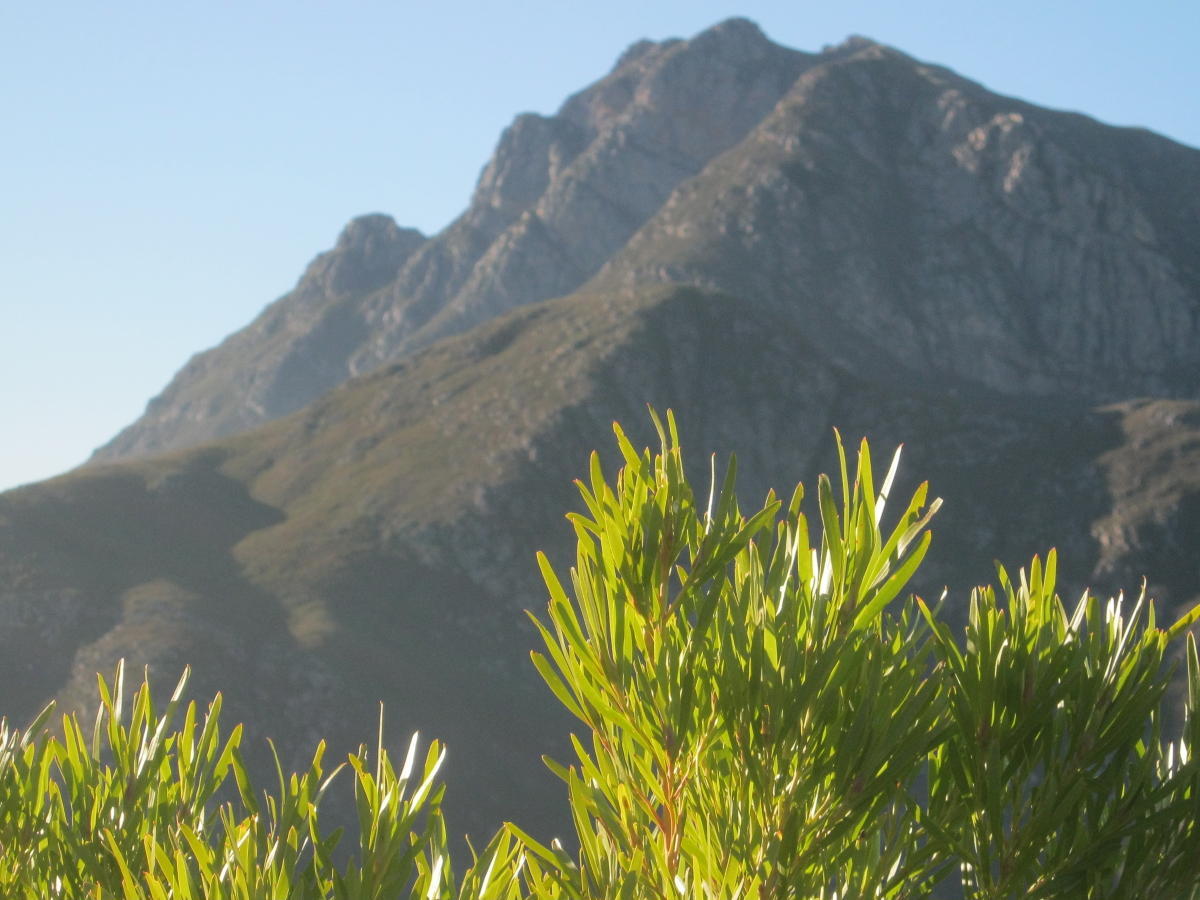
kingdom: Plantae
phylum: Tracheophyta
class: Magnoliopsida
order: Proteales
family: Proteaceae
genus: Leucadendron
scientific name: Leucadendron eucalyptifolium
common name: Gum-leaved conebush
